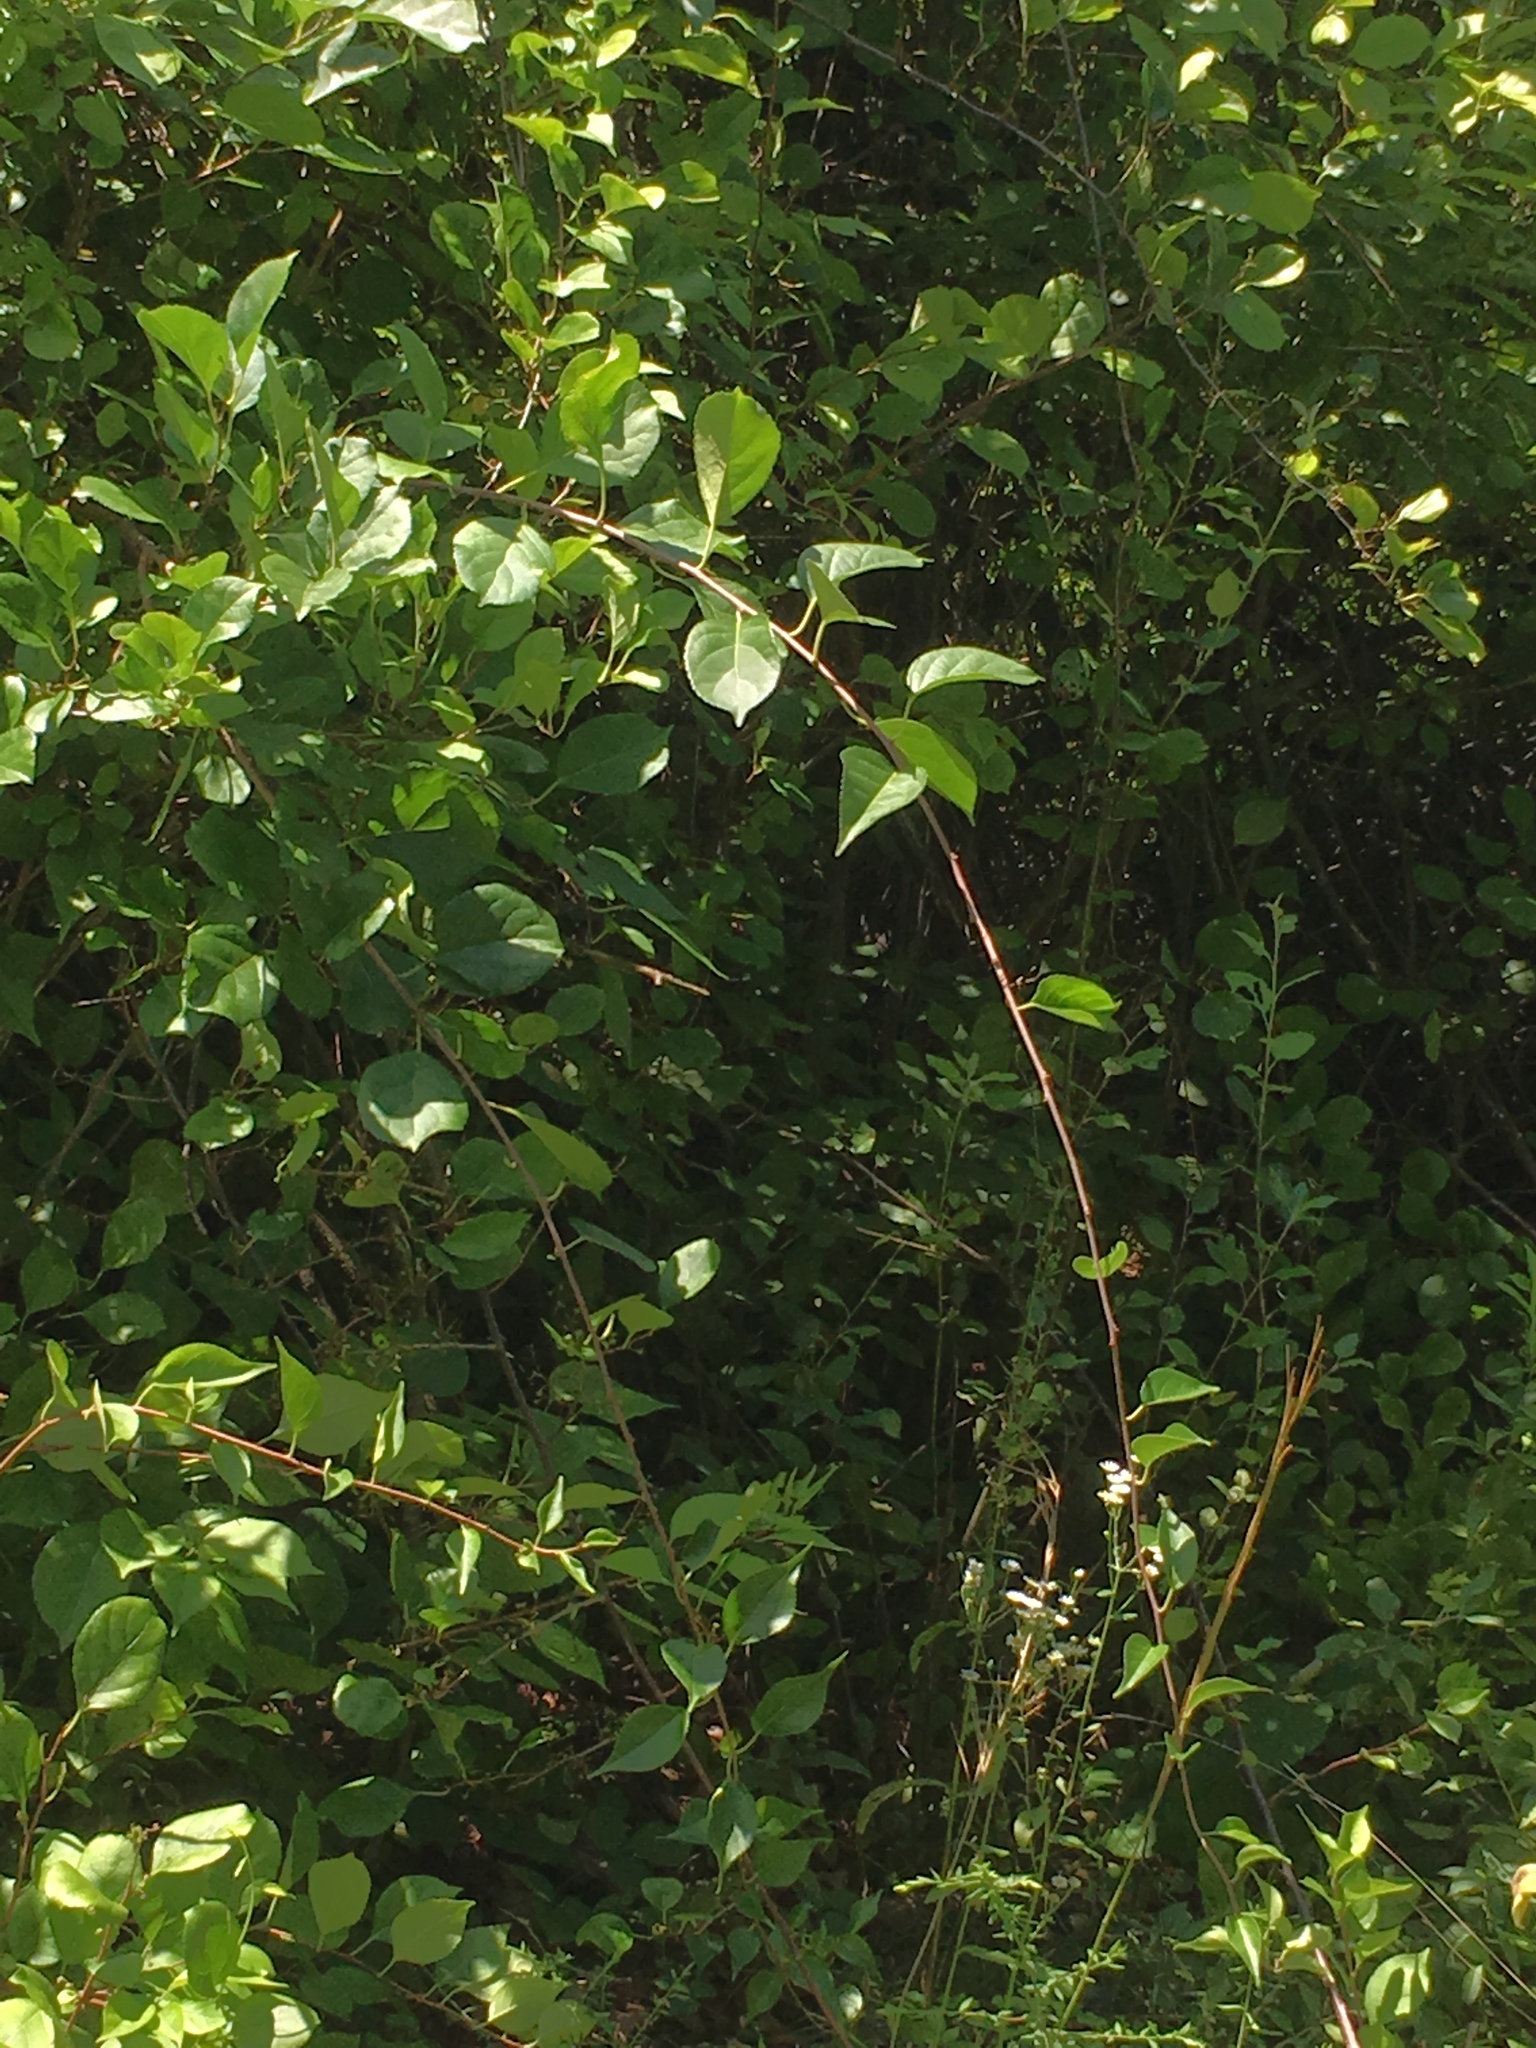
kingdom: Plantae
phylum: Tracheophyta
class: Magnoliopsida
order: Celastrales
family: Celastraceae
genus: Celastrus
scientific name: Celastrus orbiculatus
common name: Oriental bittersweet
